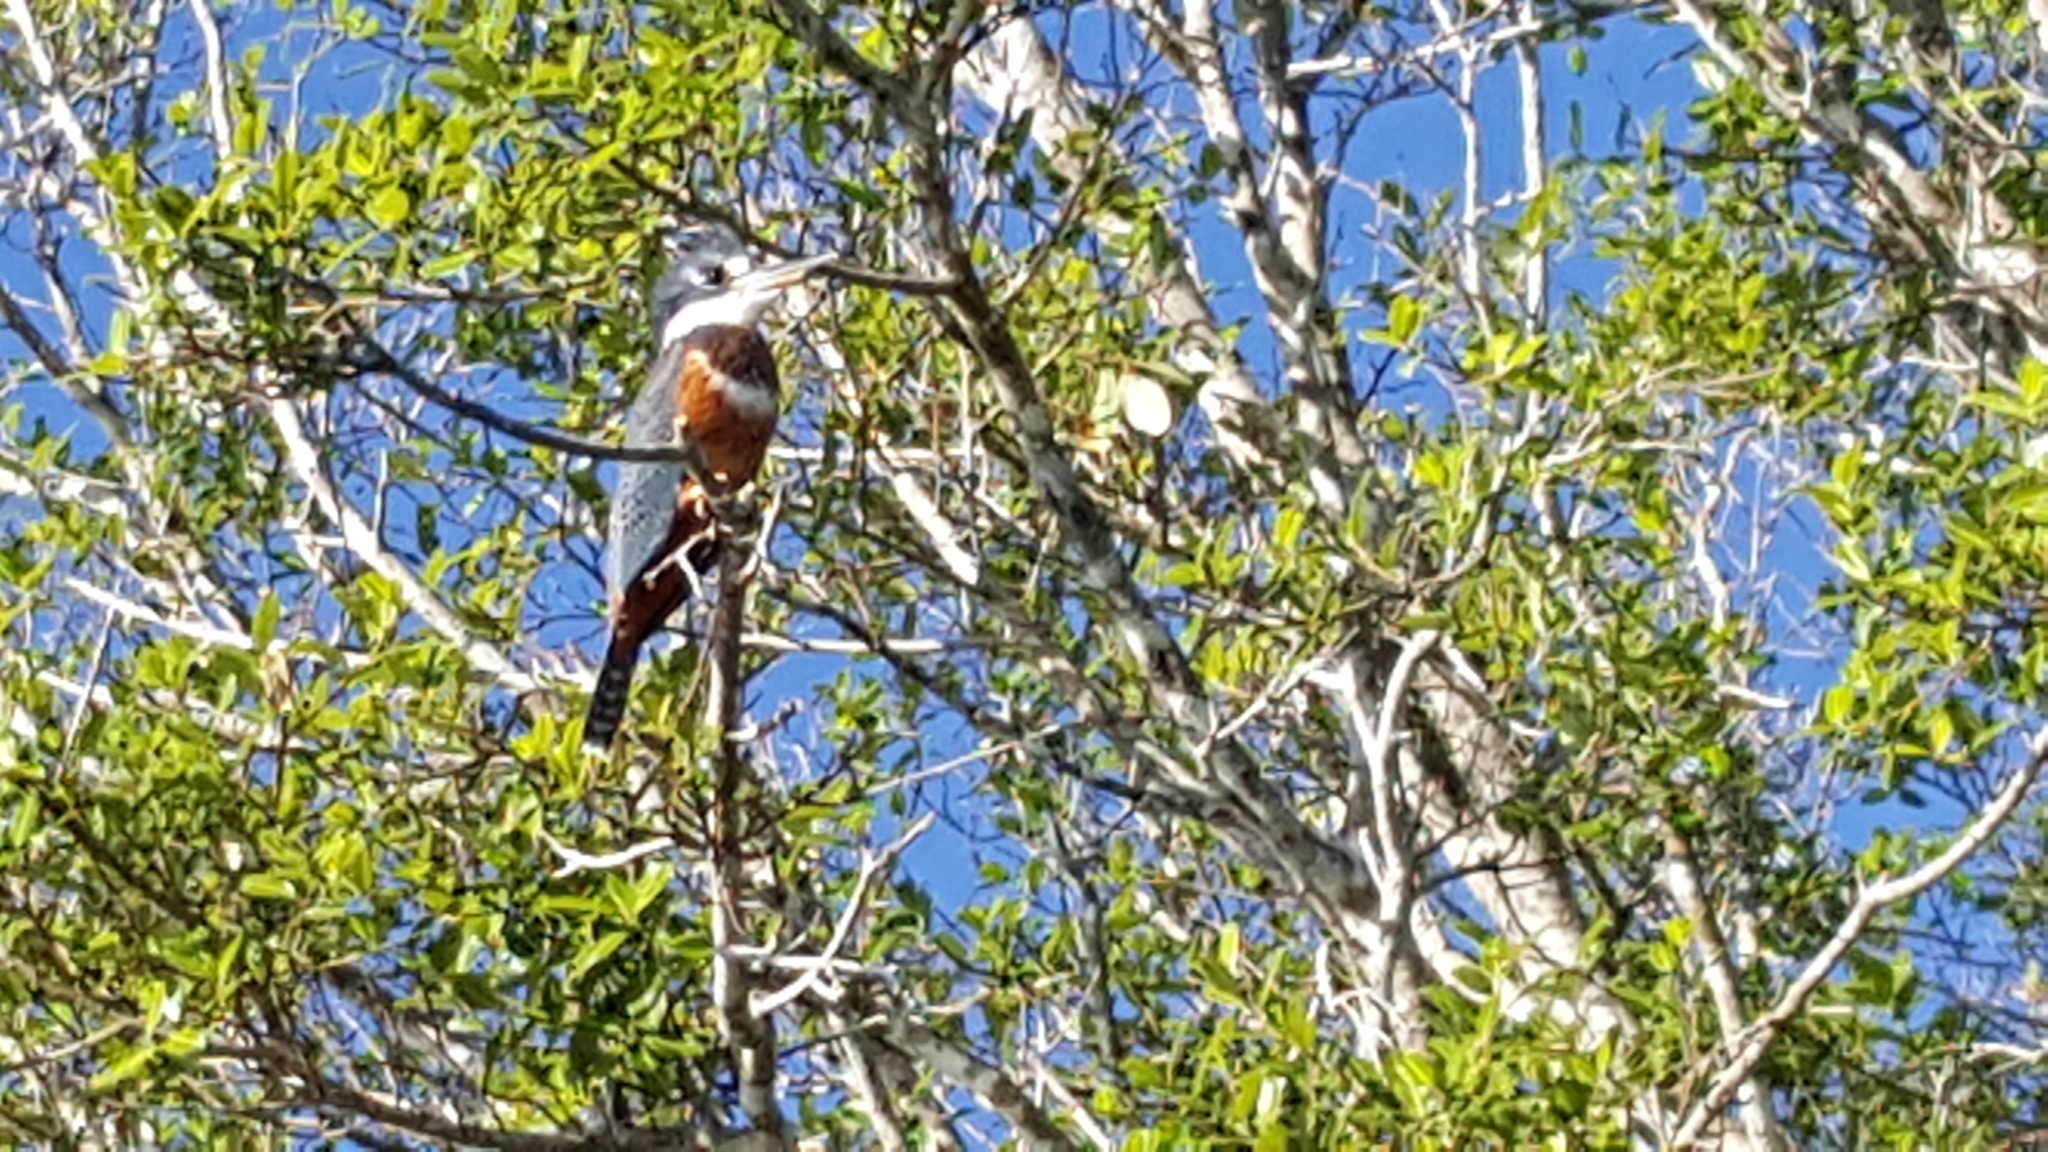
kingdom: Animalia
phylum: Chordata
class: Aves
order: Coraciiformes
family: Alcedinidae
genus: Megaceryle
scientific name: Megaceryle torquata
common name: Ringed kingfisher
